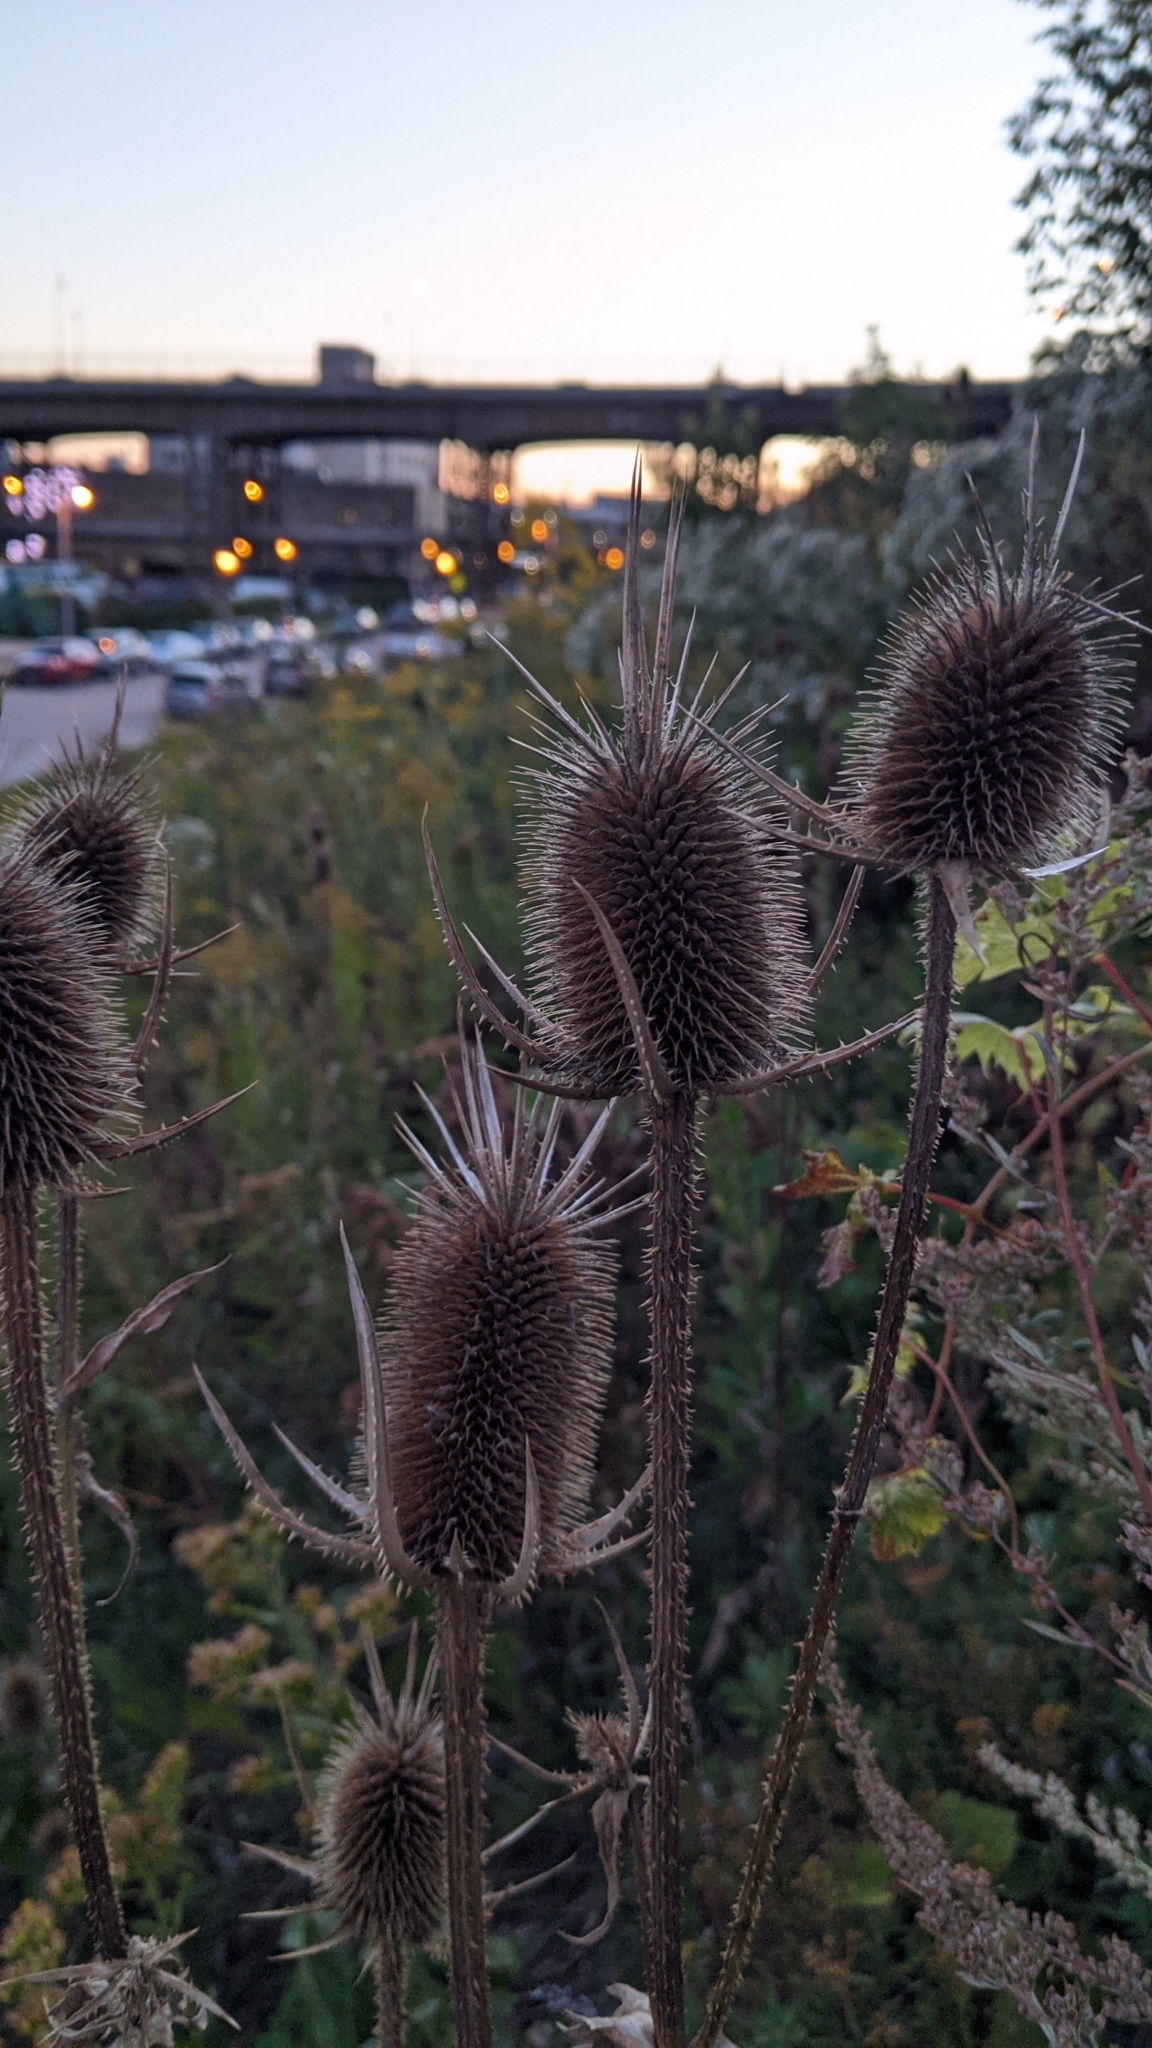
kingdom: Plantae
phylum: Tracheophyta
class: Magnoliopsida
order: Dipsacales
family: Caprifoliaceae
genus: Dipsacus
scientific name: Dipsacus laciniatus
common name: Cut-leaved teasel
